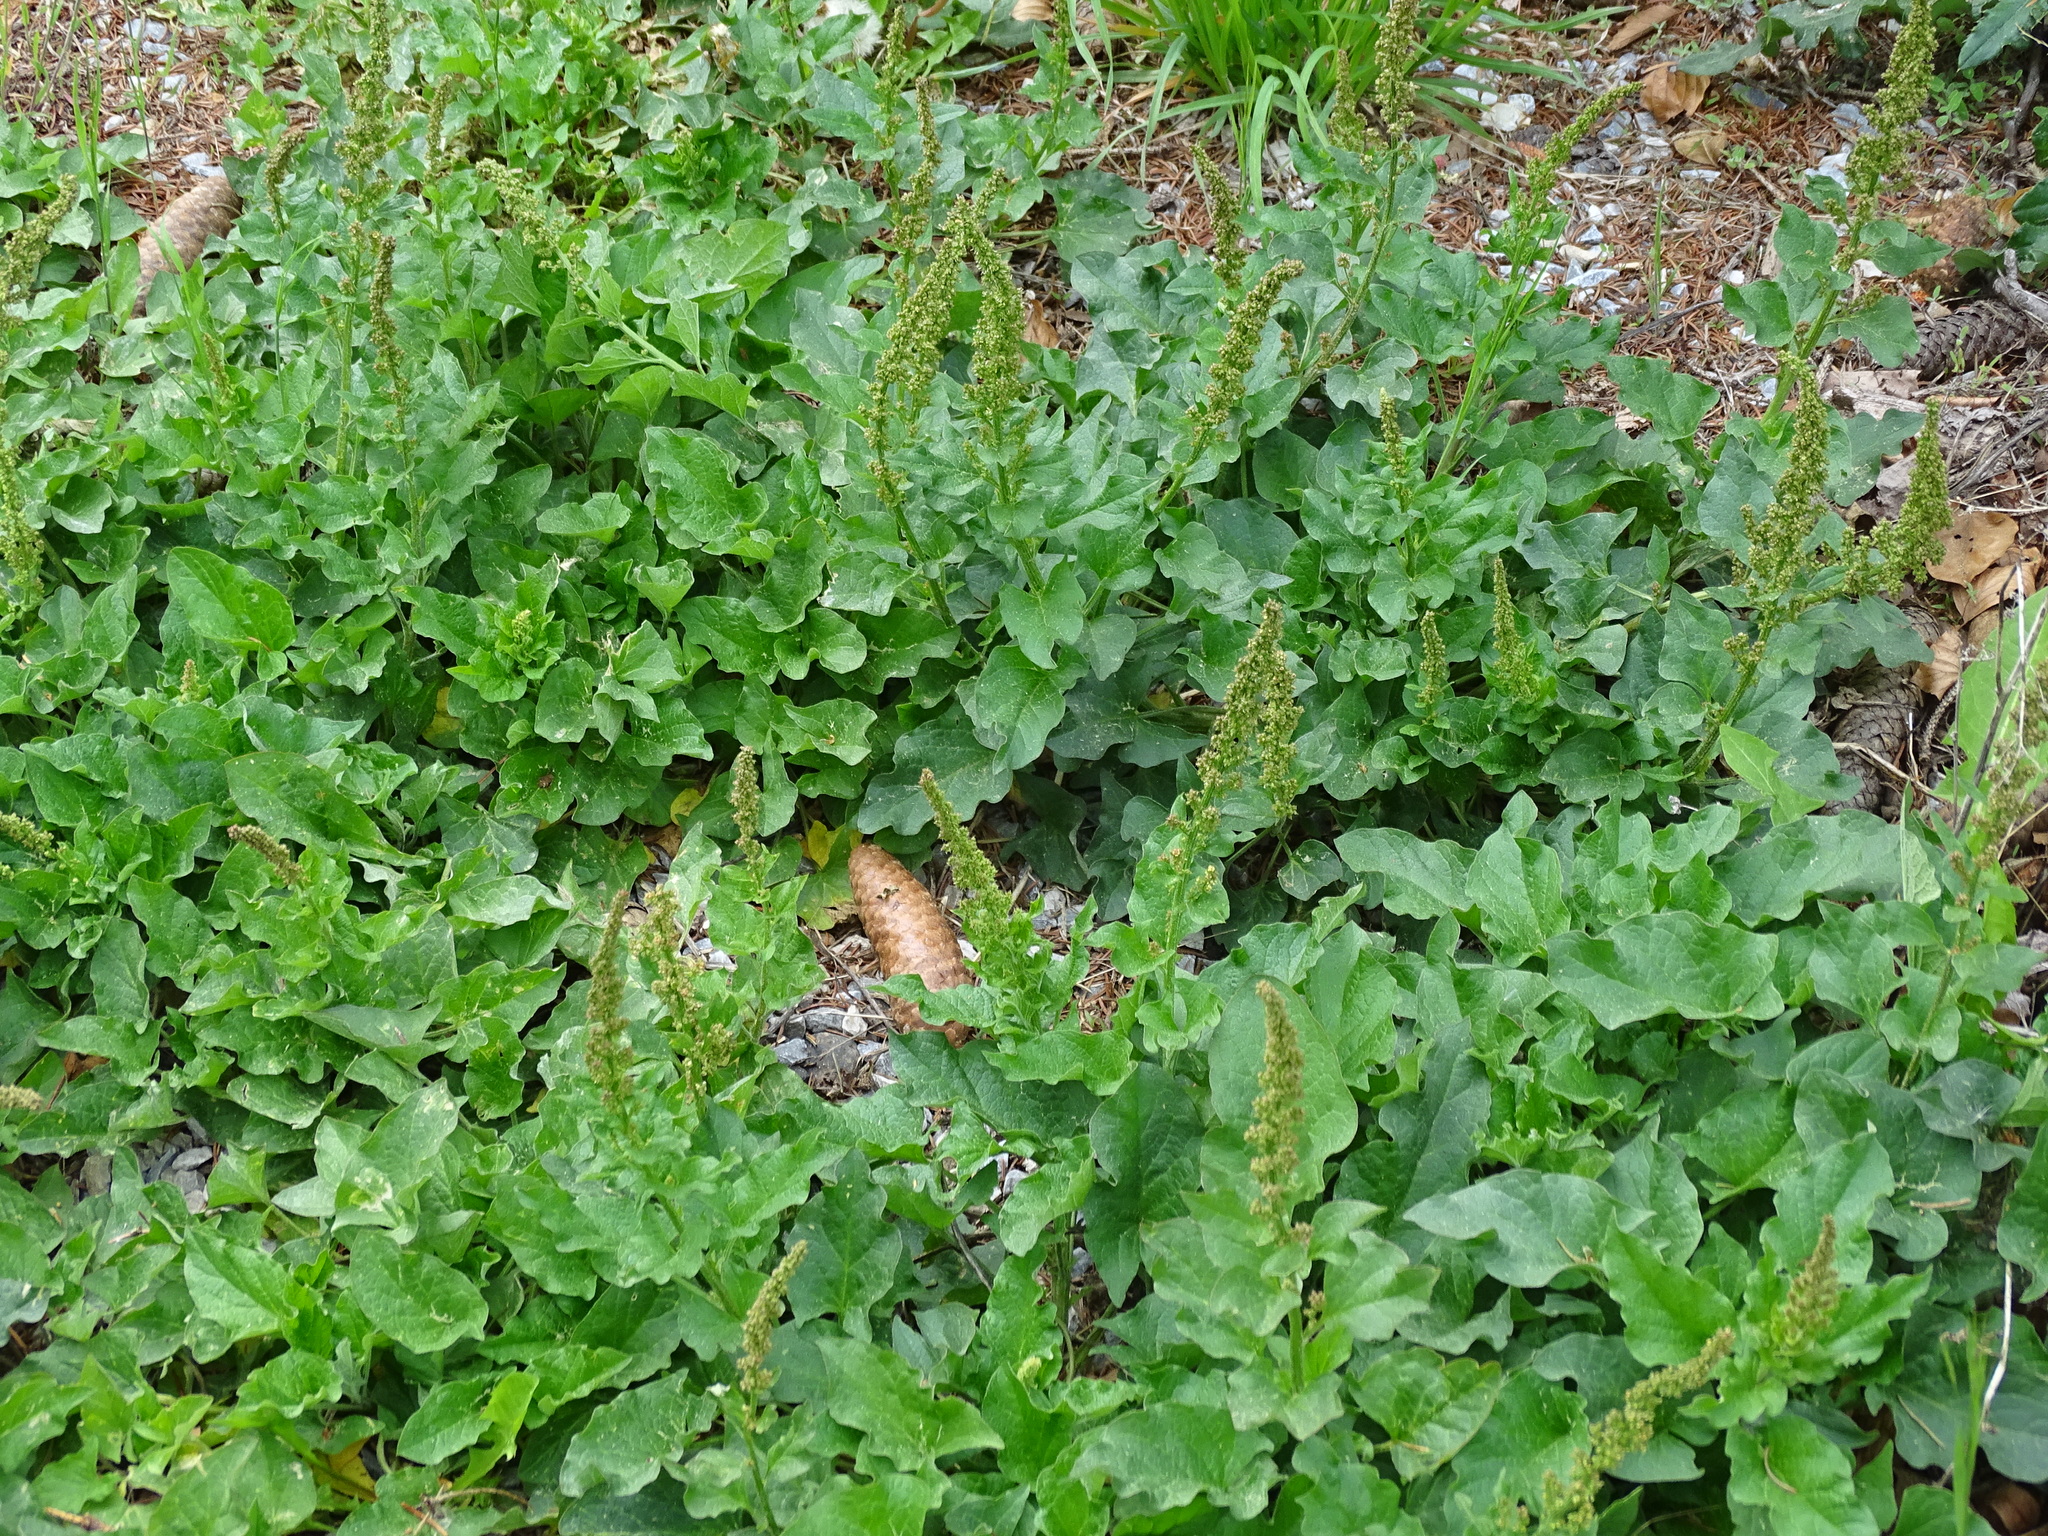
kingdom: Plantae
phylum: Tracheophyta
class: Magnoliopsida
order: Caryophyllales
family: Amaranthaceae
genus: Blitum
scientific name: Blitum bonus-henricus
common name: Good king henry
